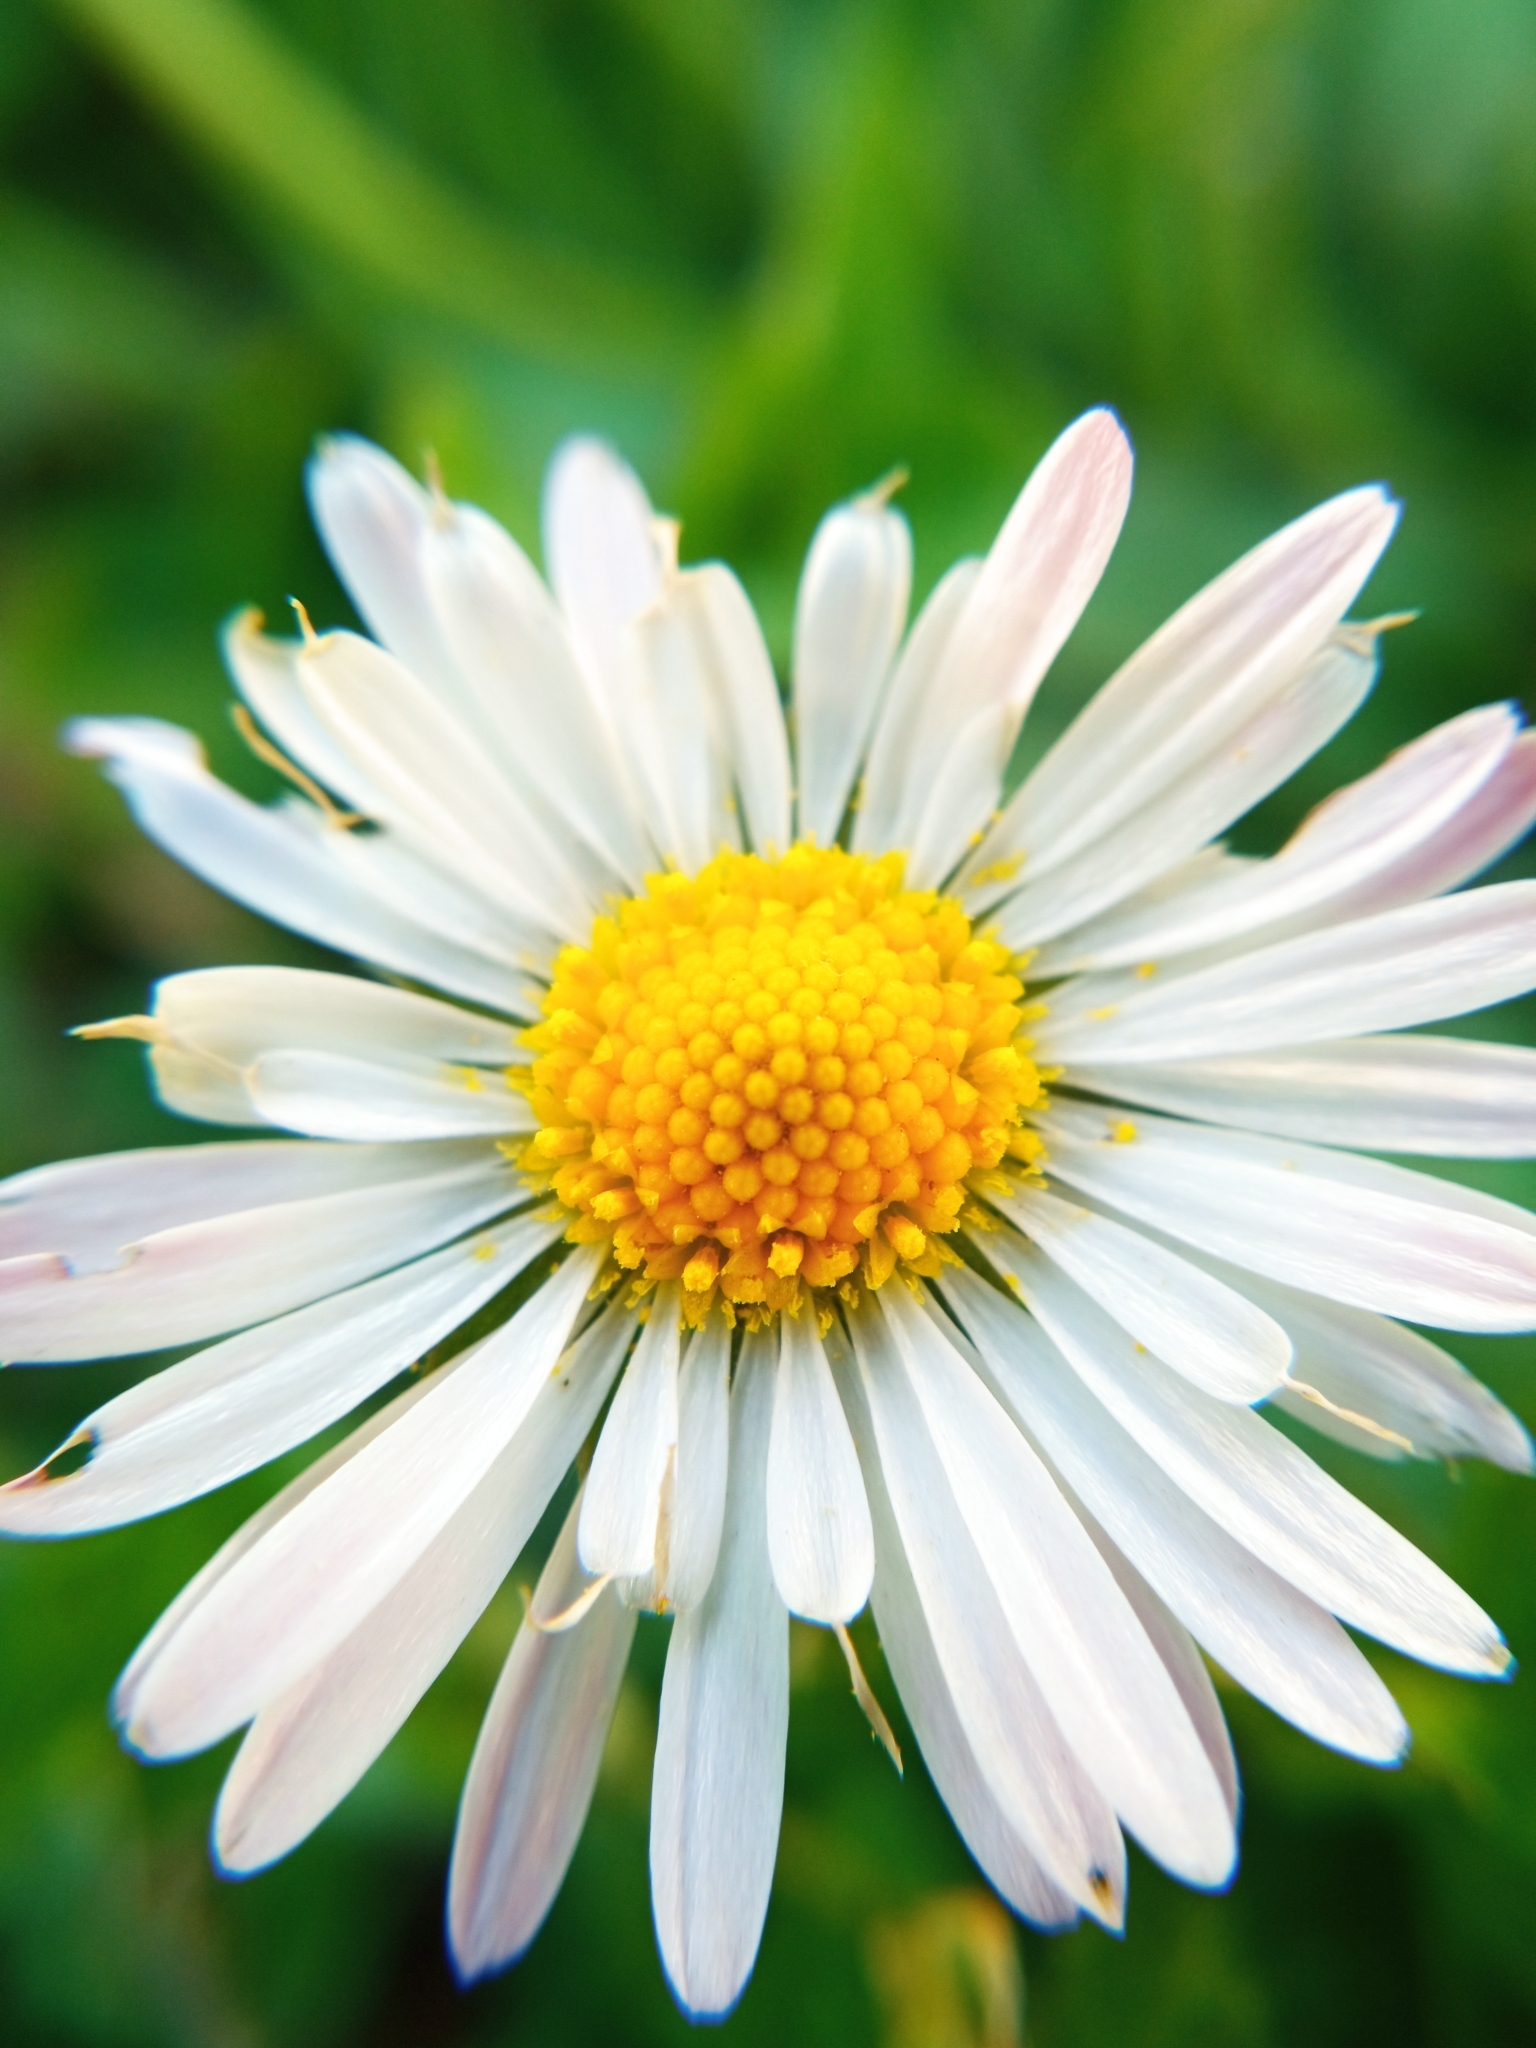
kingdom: Plantae
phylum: Tracheophyta
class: Magnoliopsida
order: Asterales
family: Asteraceae
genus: Bellis
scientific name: Bellis perennis
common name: Lawndaisy
